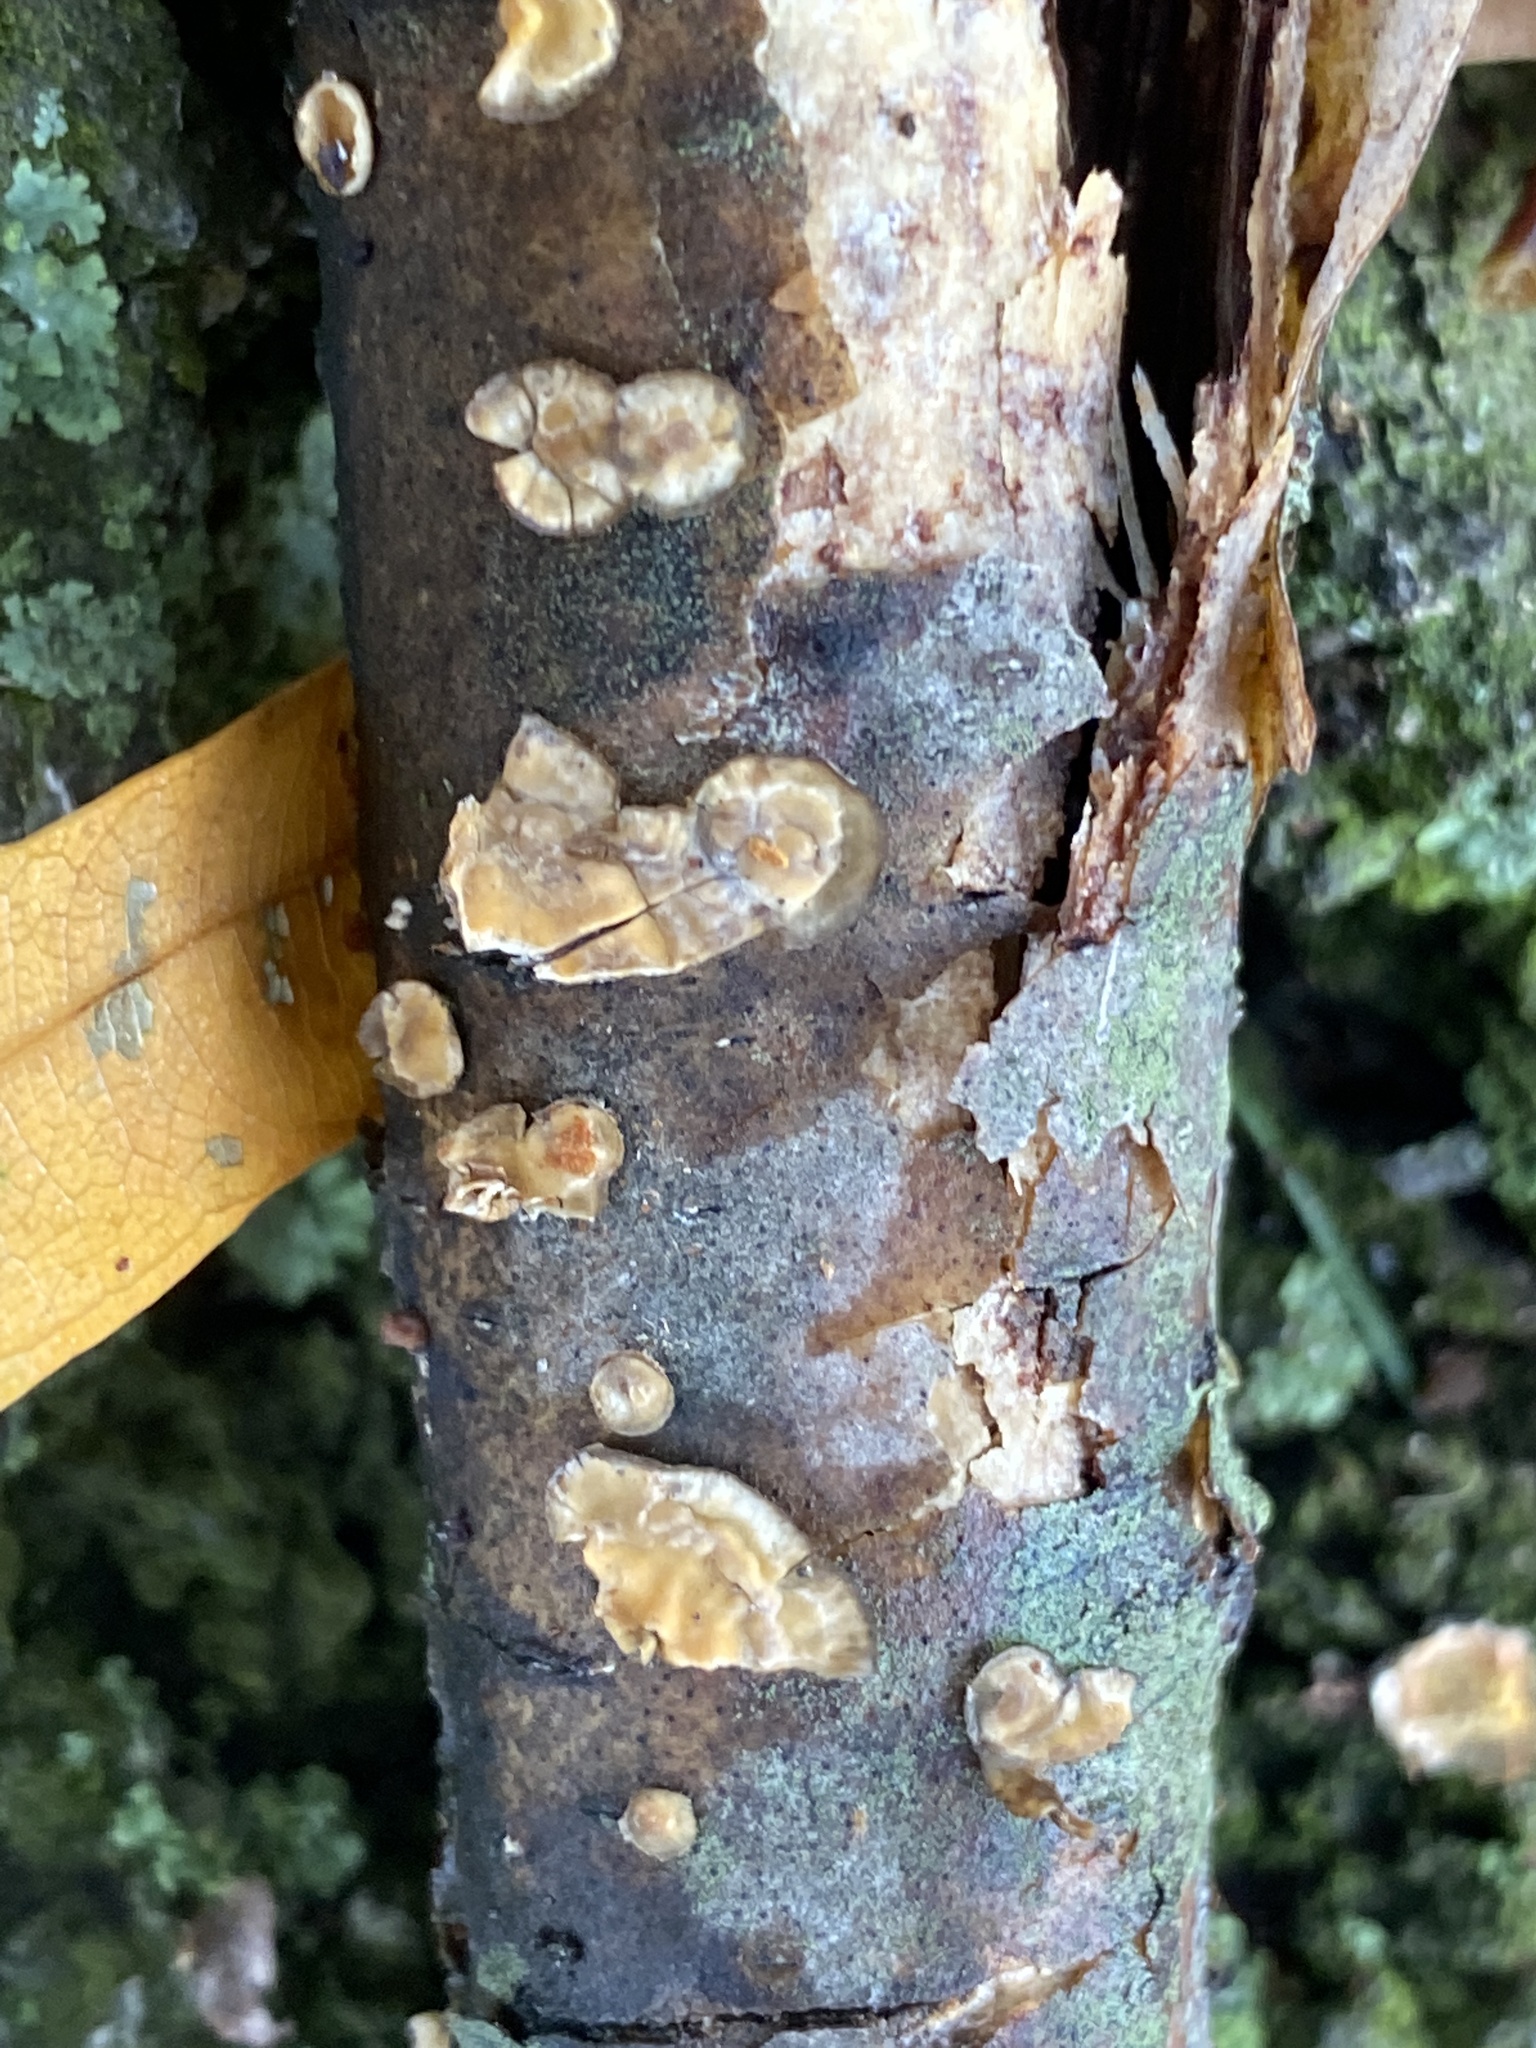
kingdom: Fungi
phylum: Basidiomycota
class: Agaricomycetes
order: Russulales
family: Stereaceae
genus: Stereum
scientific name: Stereum complicatum
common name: Crowded parchment
